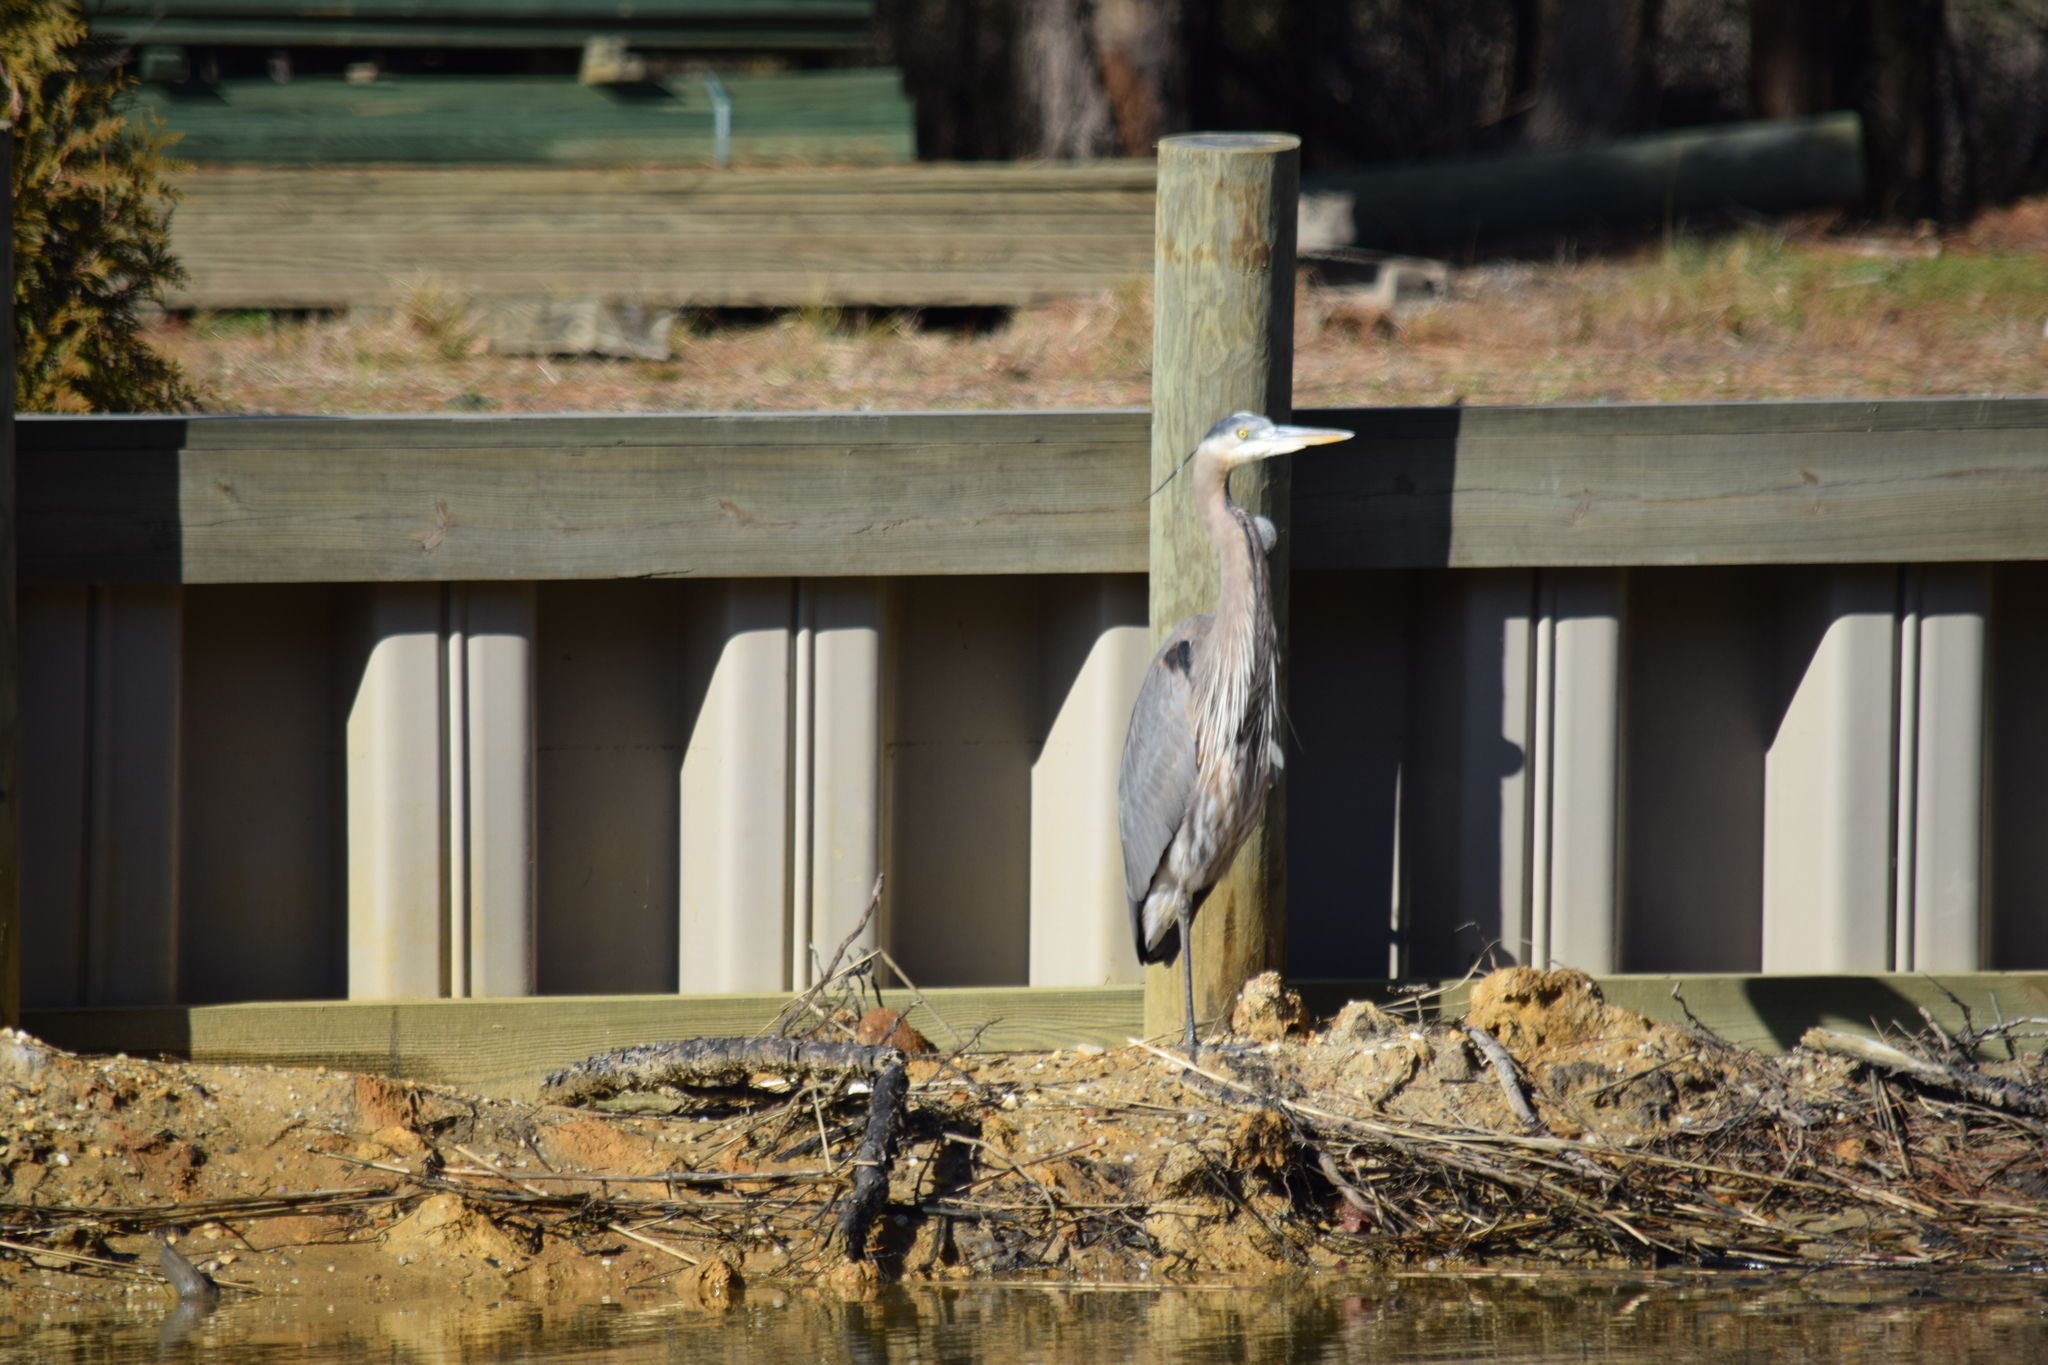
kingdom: Animalia
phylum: Chordata
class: Aves
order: Pelecaniformes
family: Ardeidae
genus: Ardea
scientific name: Ardea herodias
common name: Great blue heron
